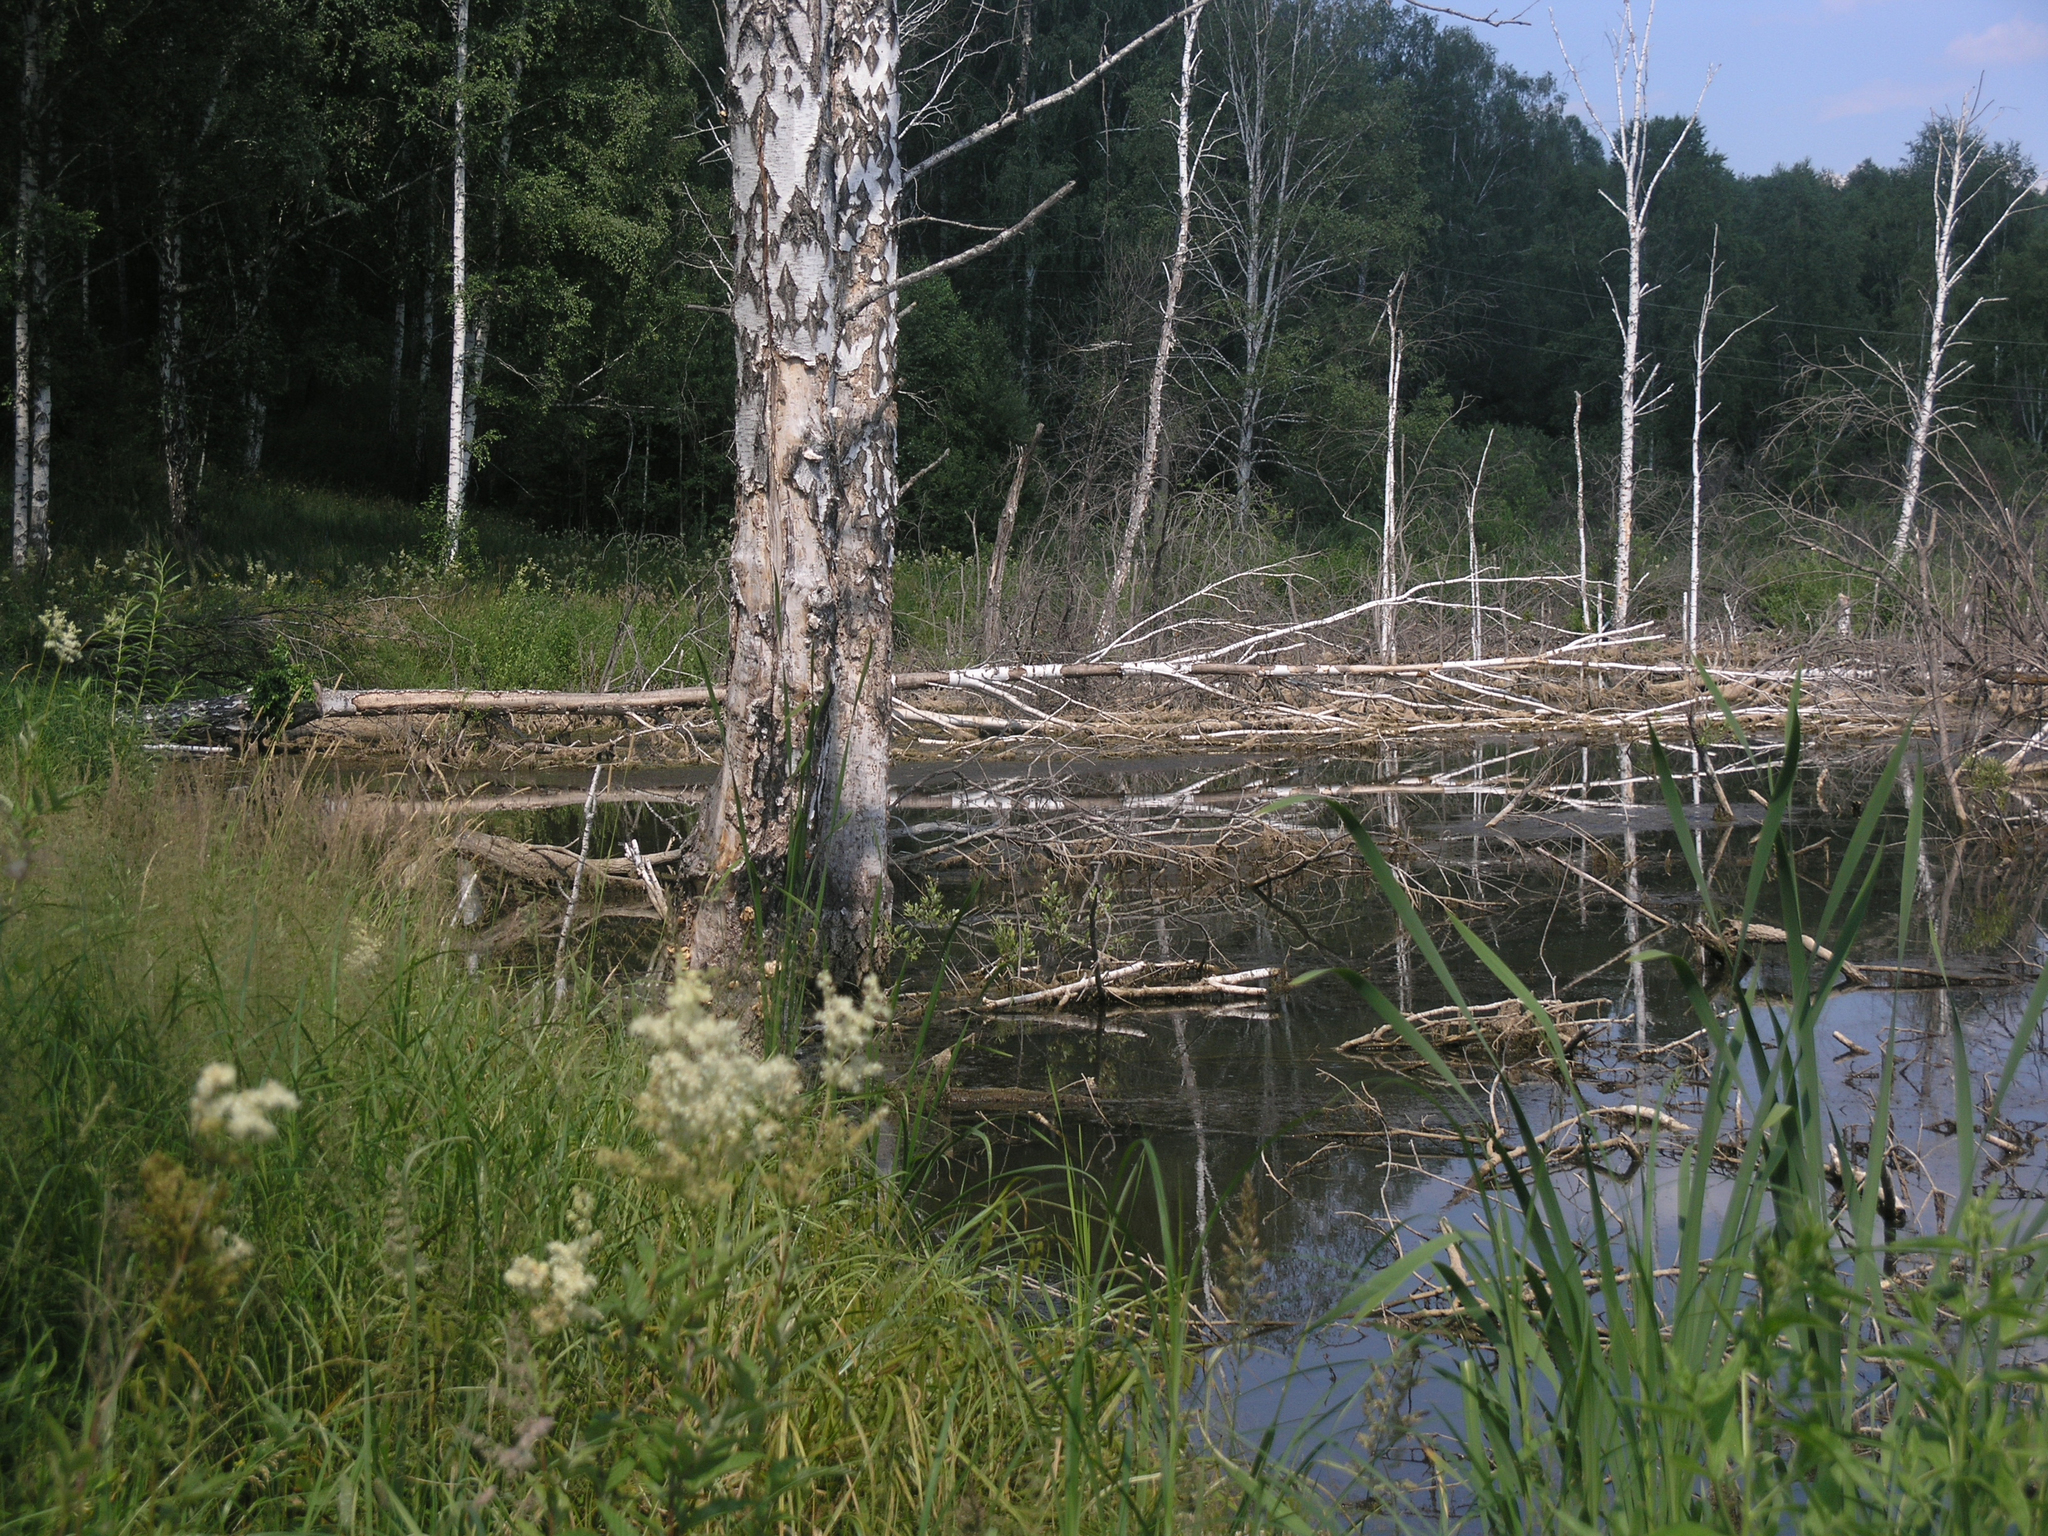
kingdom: Animalia
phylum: Chordata
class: Mammalia
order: Rodentia
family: Castoridae
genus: Castor
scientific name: Castor fiber
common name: Eurasian beaver
